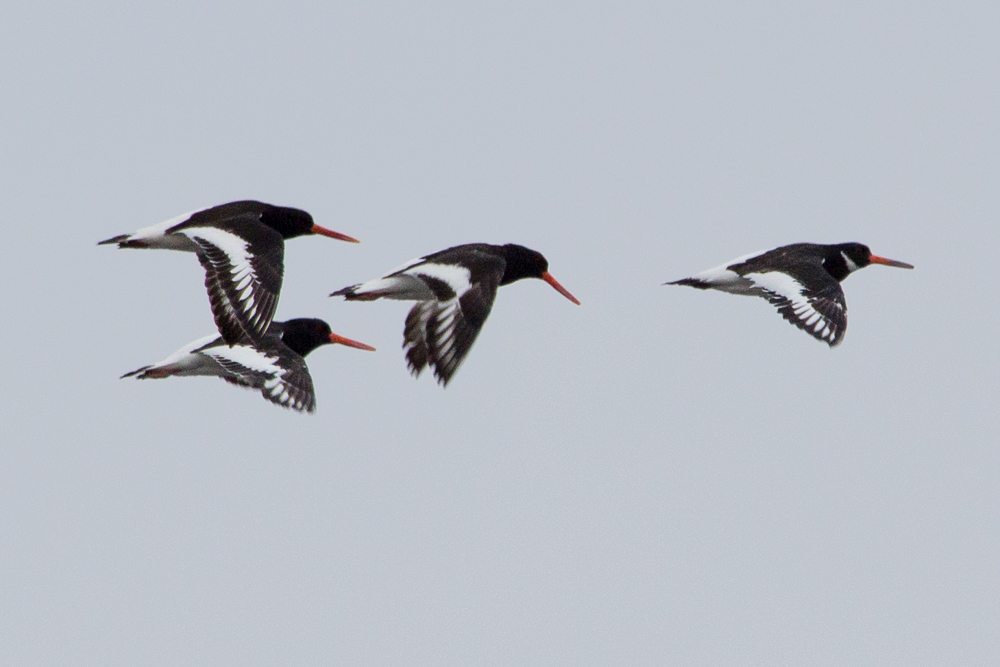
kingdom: Animalia
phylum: Chordata
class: Aves
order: Charadriiformes
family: Haematopodidae
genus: Haematopus
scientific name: Haematopus ostralegus
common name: Eurasian oystercatcher
